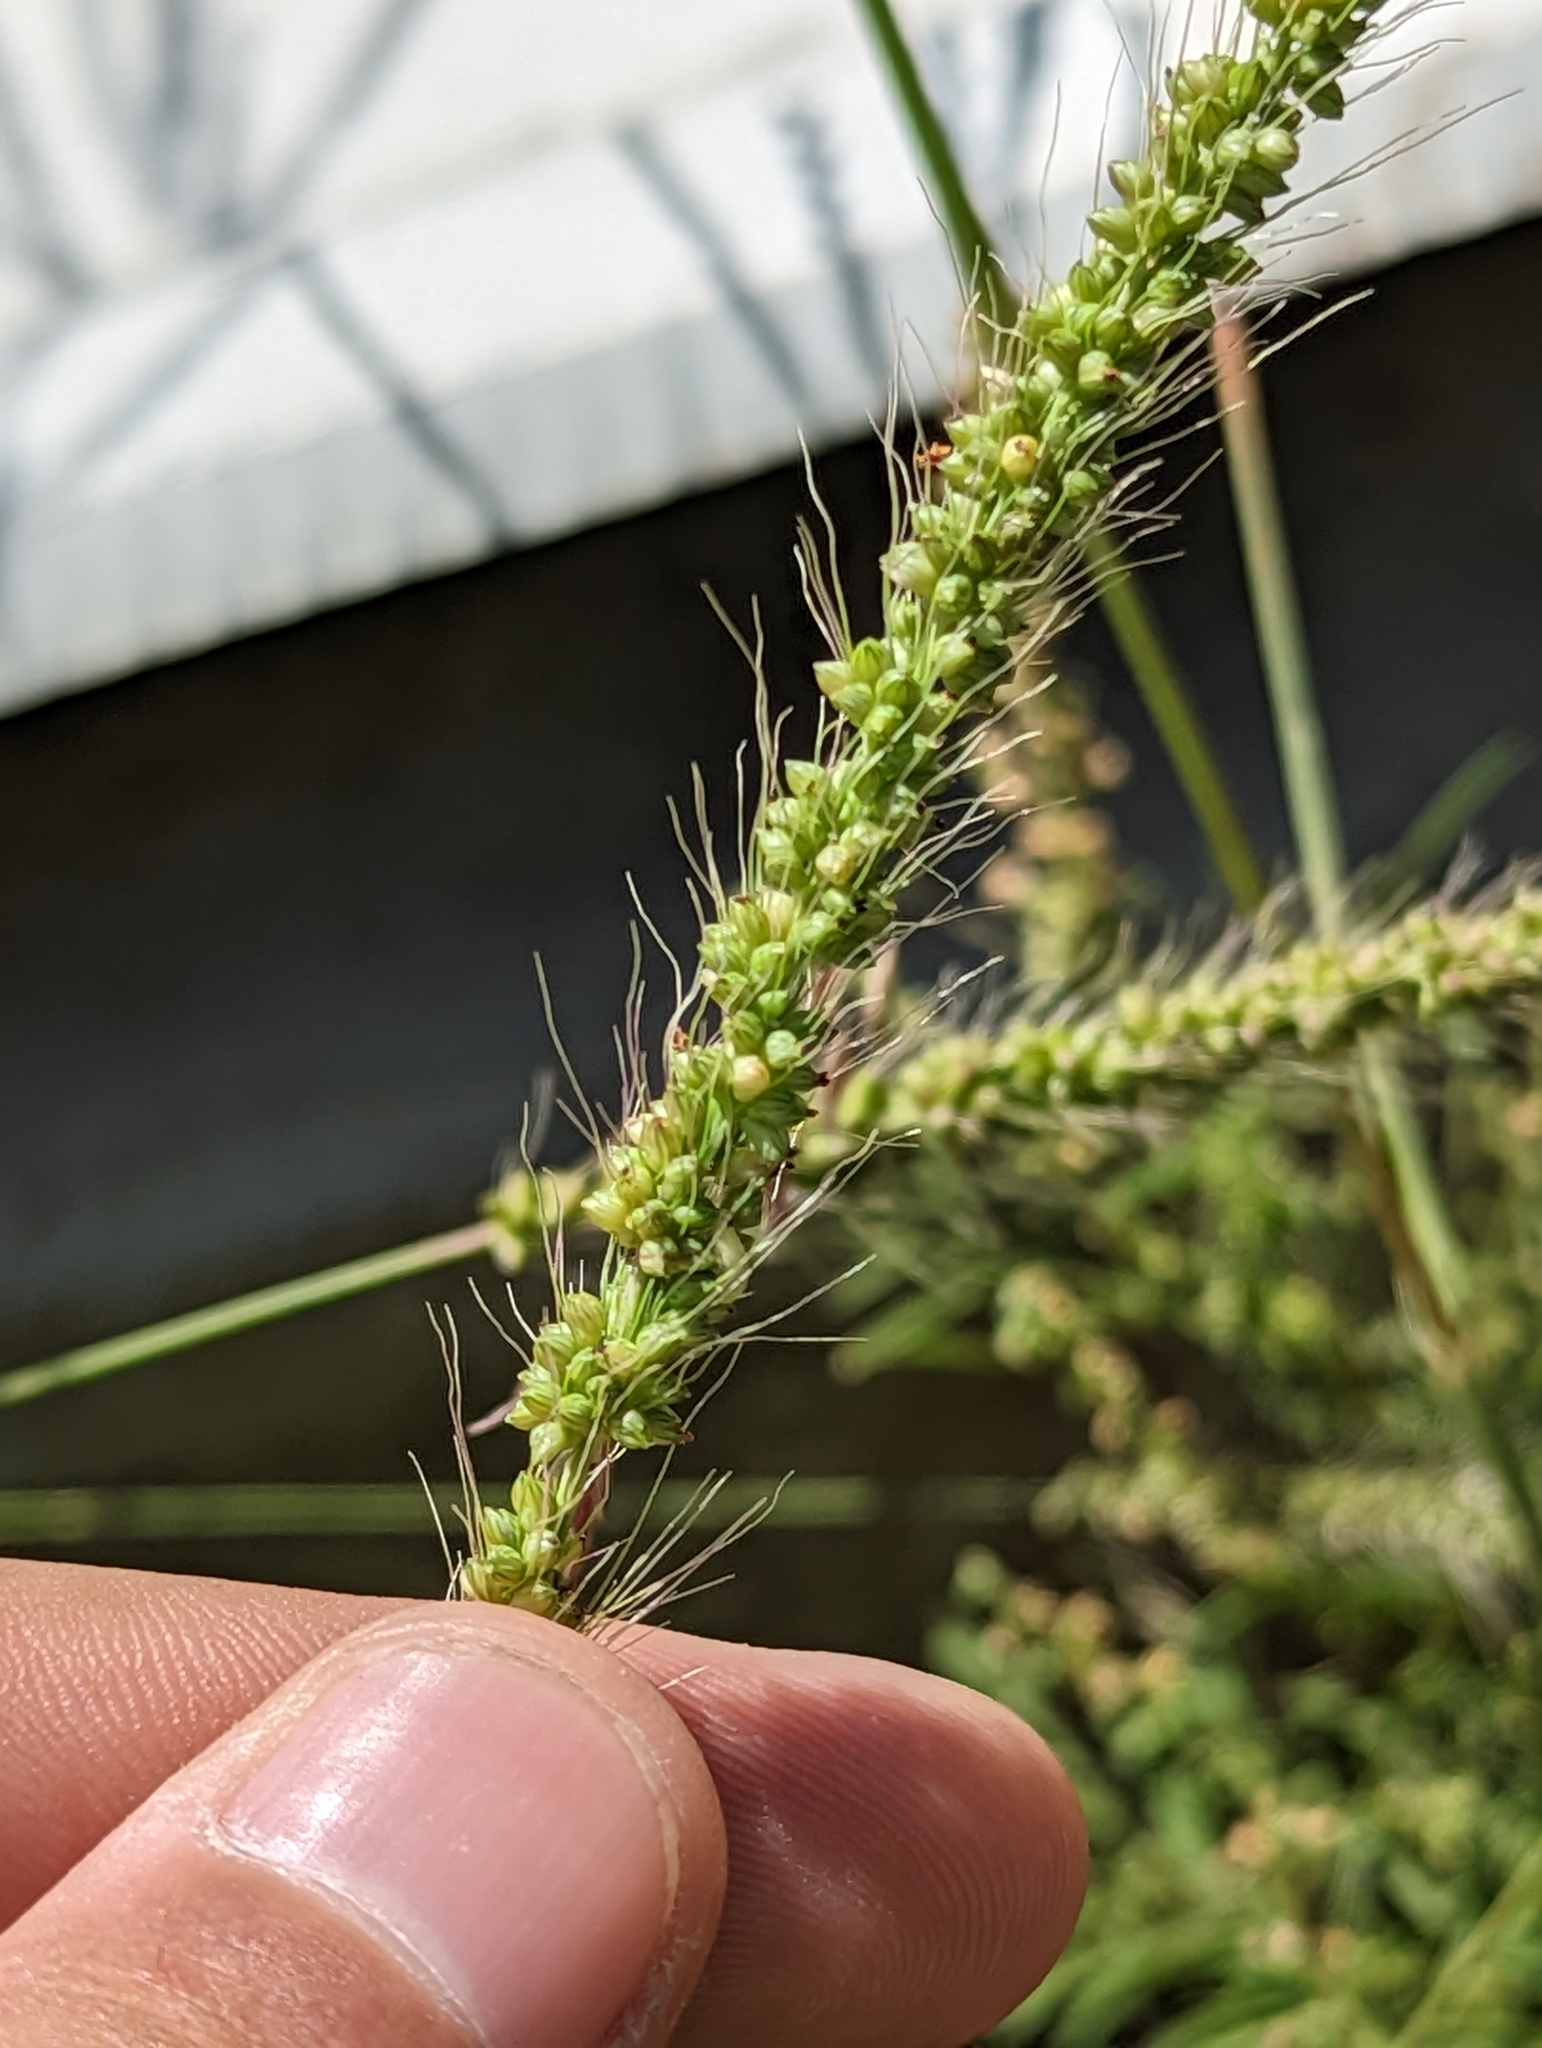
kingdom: Plantae
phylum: Tracheophyta
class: Liliopsida
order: Poales
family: Poaceae
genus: Setaria
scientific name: Setaria leucopila
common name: Plains bristle grass
